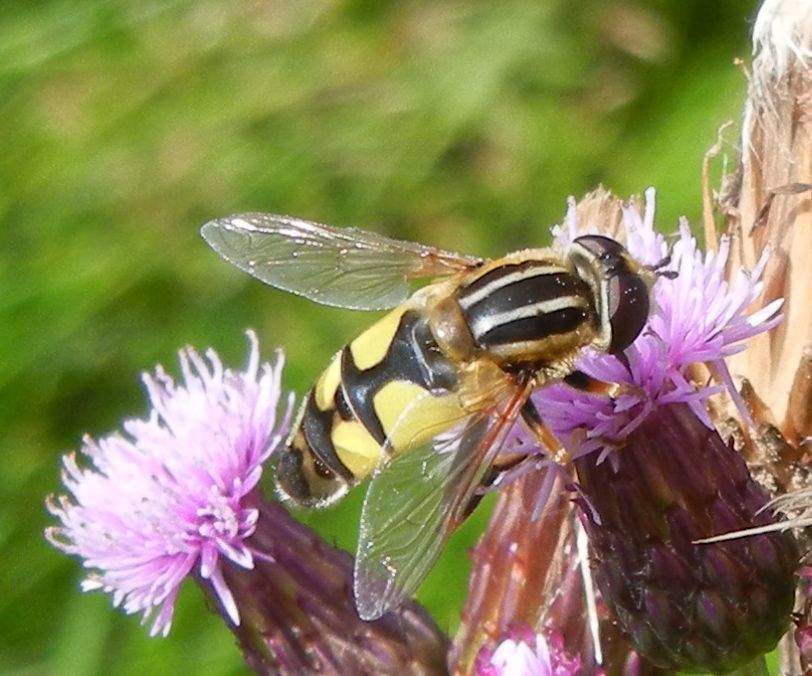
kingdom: Animalia
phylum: Arthropoda
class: Insecta
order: Diptera
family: Syrphidae
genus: Helophilus
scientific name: Helophilus trivittatus
